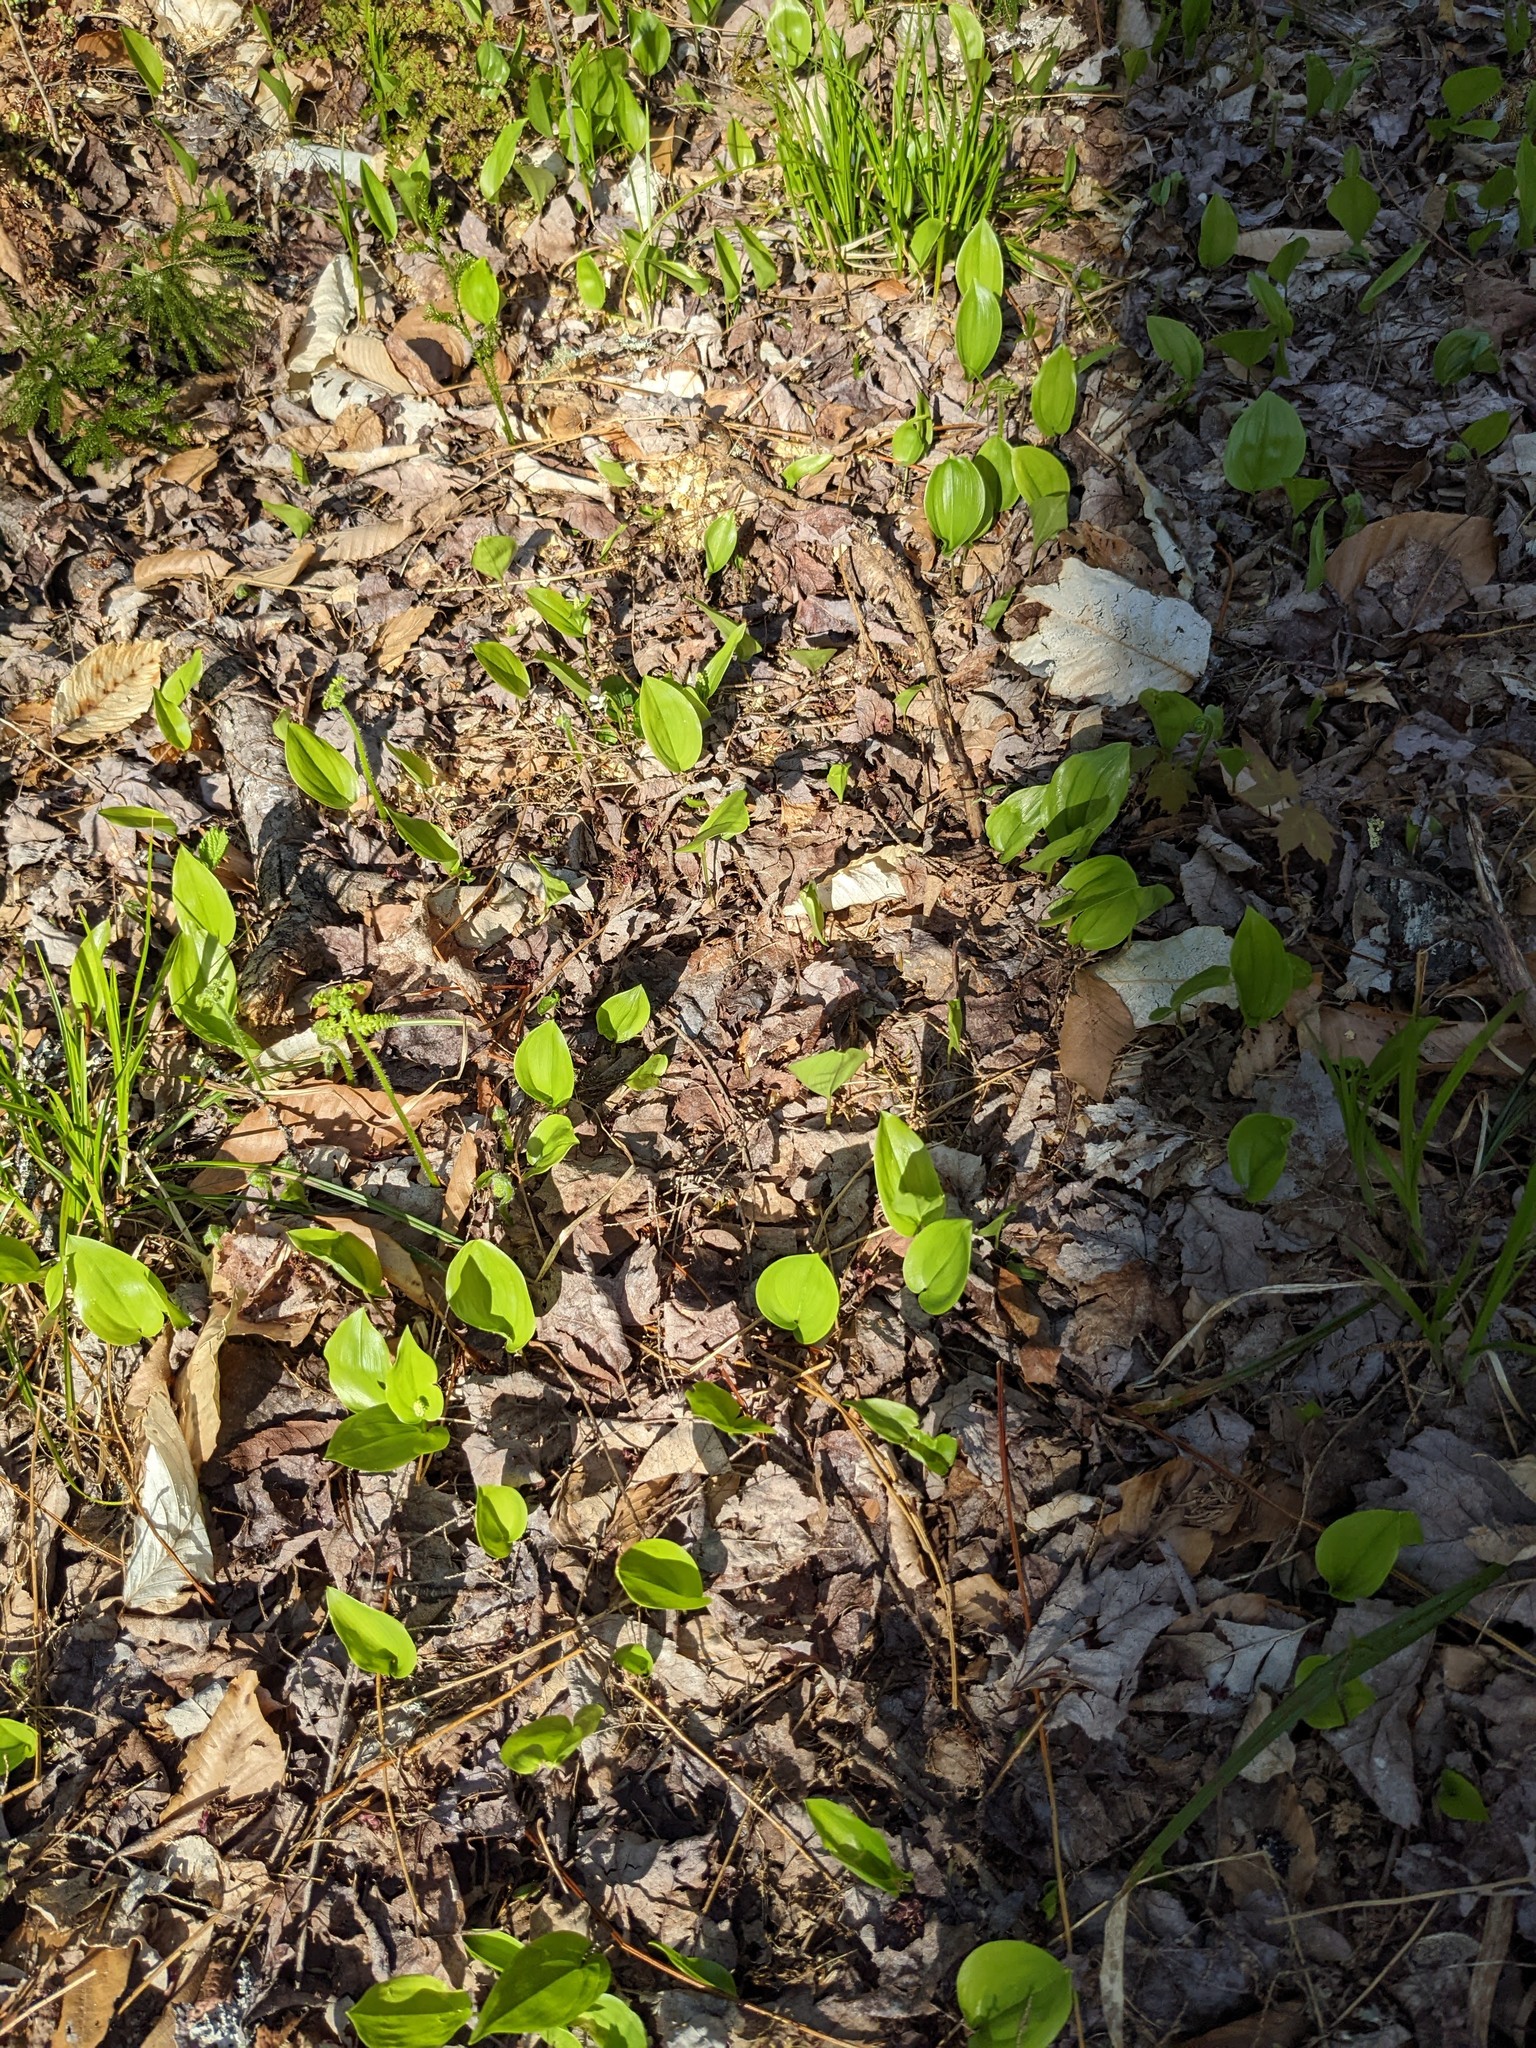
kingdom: Plantae
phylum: Tracheophyta
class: Liliopsida
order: Asparagales
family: Asparagaceae
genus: Maianthemum
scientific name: Maianthemum canadense
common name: False lily-of-the-valley
